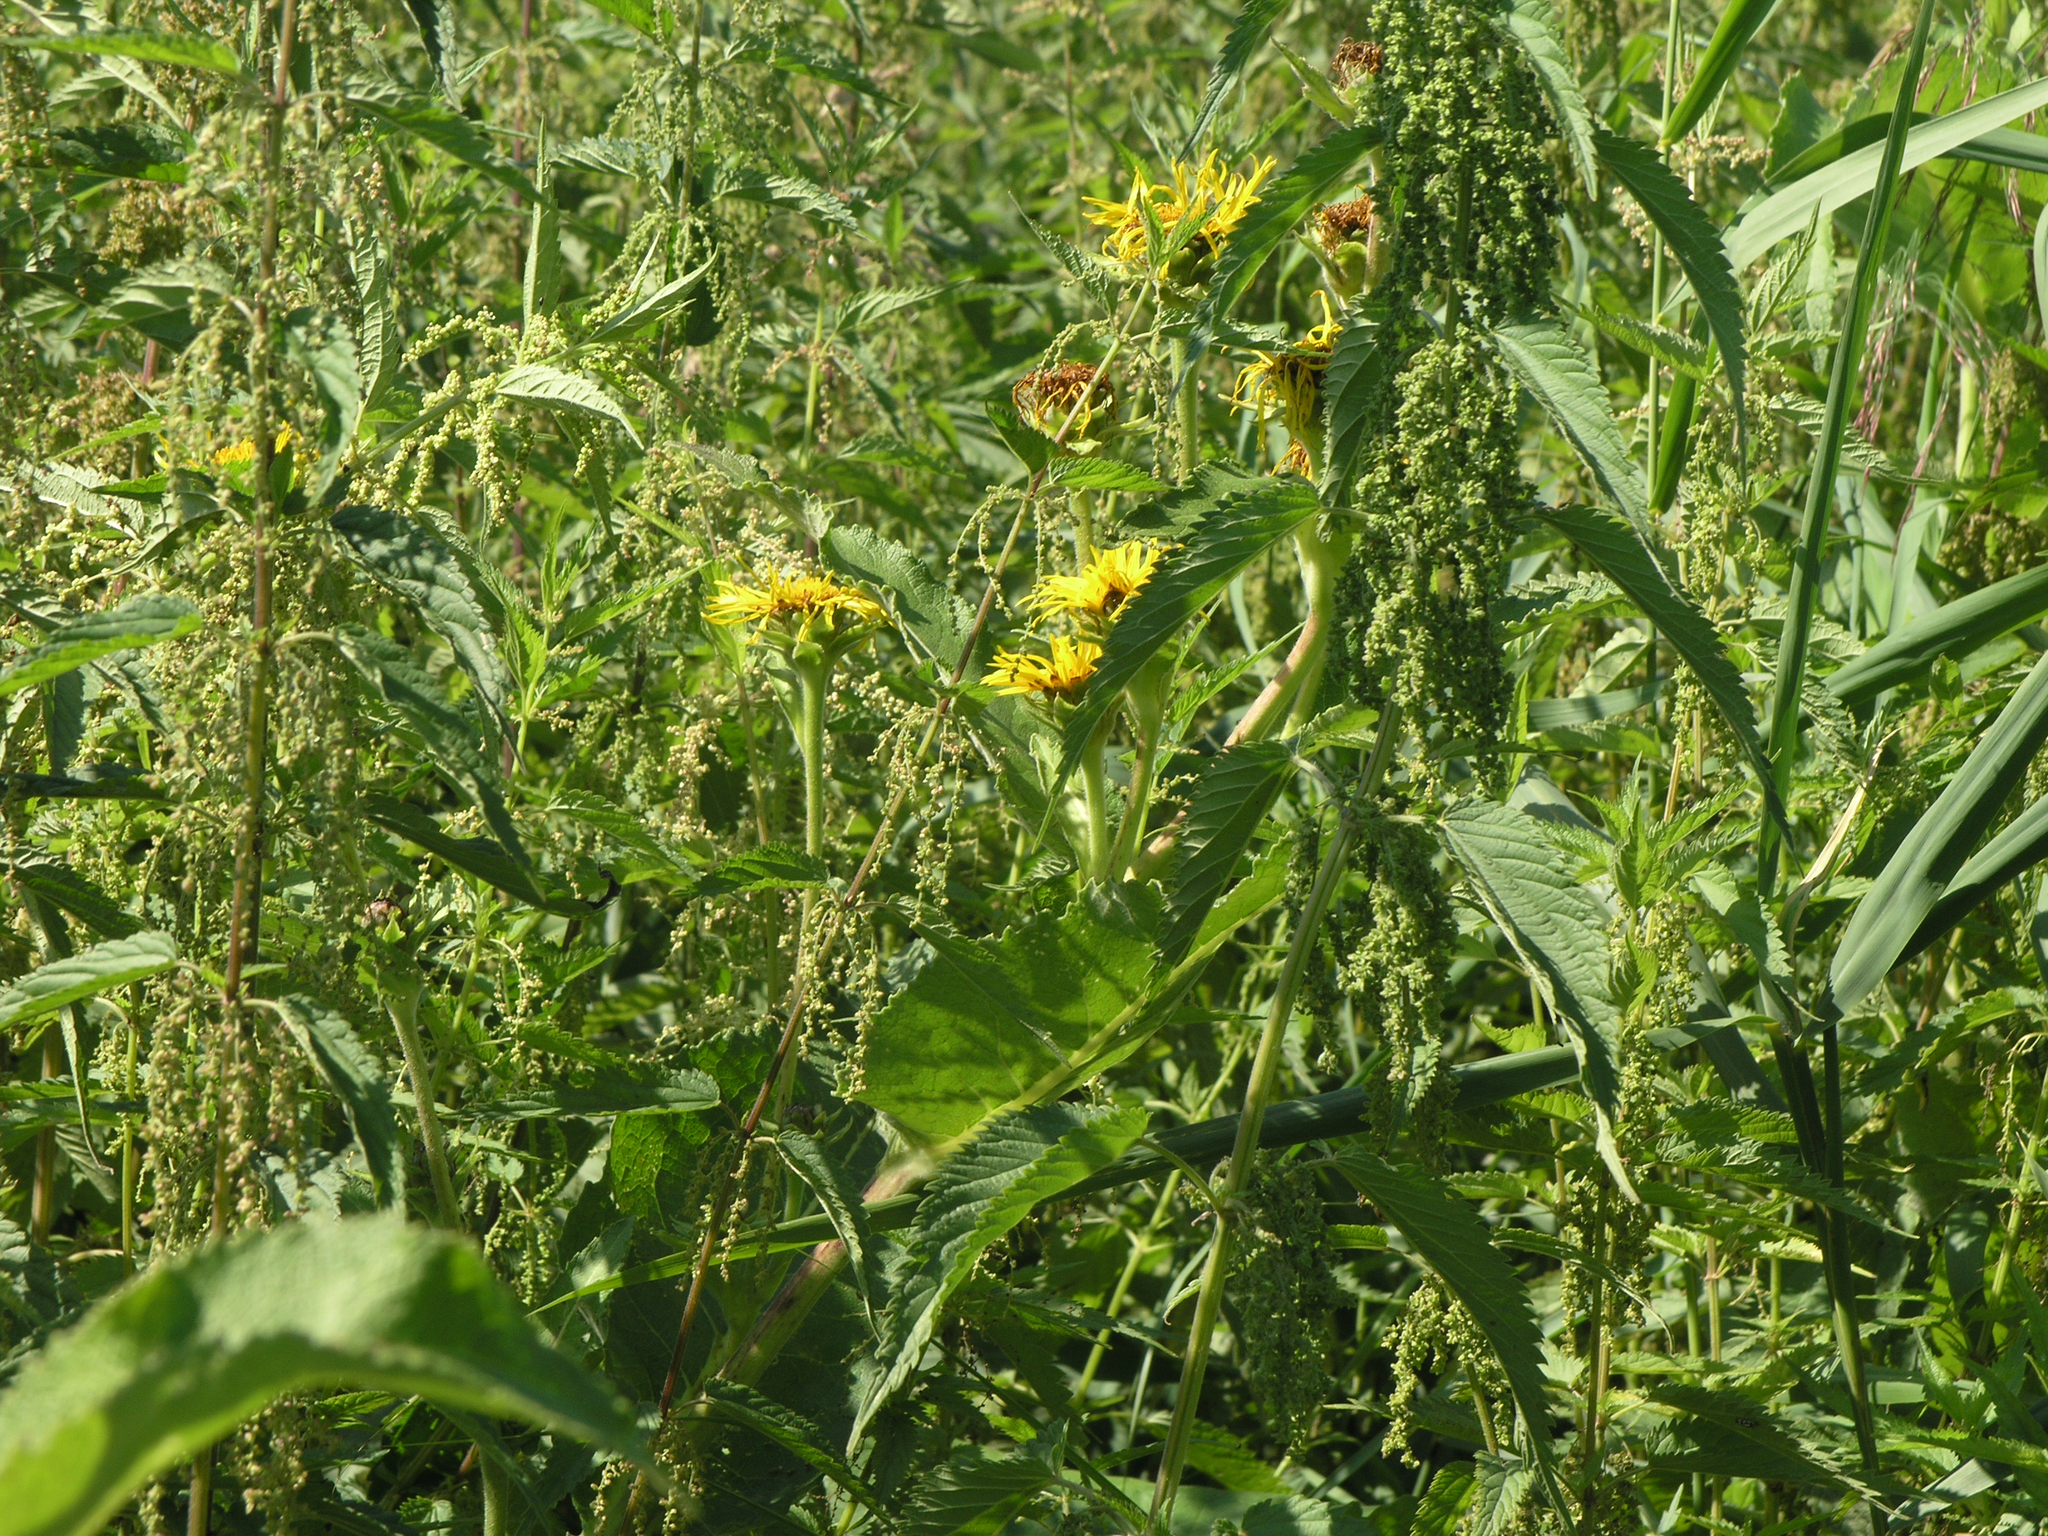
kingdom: Plantae
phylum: Tracheophyta
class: Magnoliopsida
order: Rosales
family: Urticaceae
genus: Urtica
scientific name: Urtica dioica
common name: Common nettle
